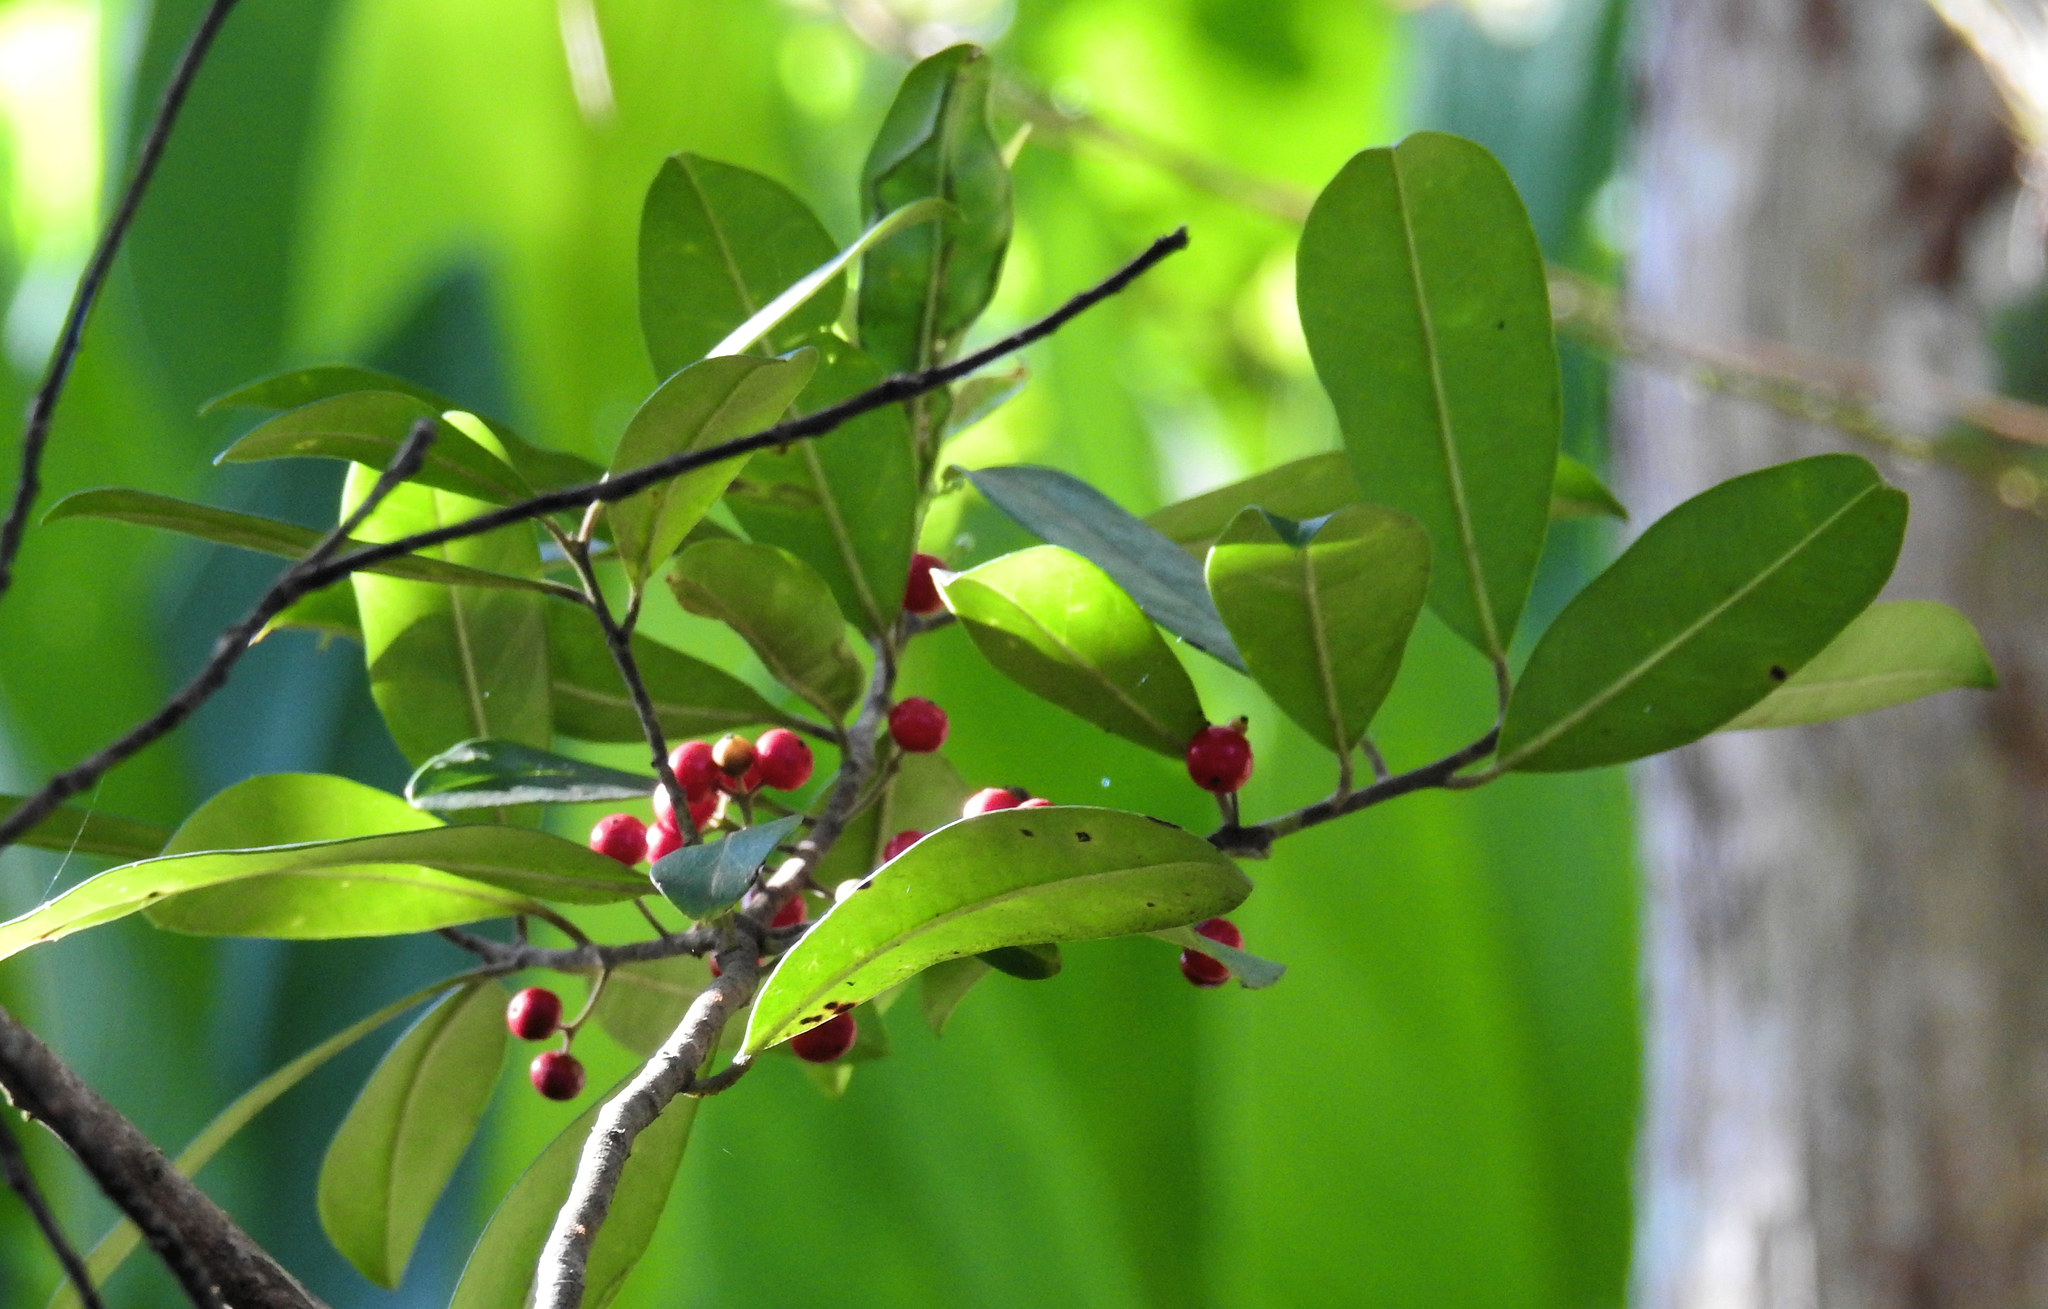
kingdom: Plantae
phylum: Tracheophyta
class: Magnoliopsida
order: Aquifoliales
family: Aquifoliaceae
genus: Ilex
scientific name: Ilex cassine
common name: Dahoon
